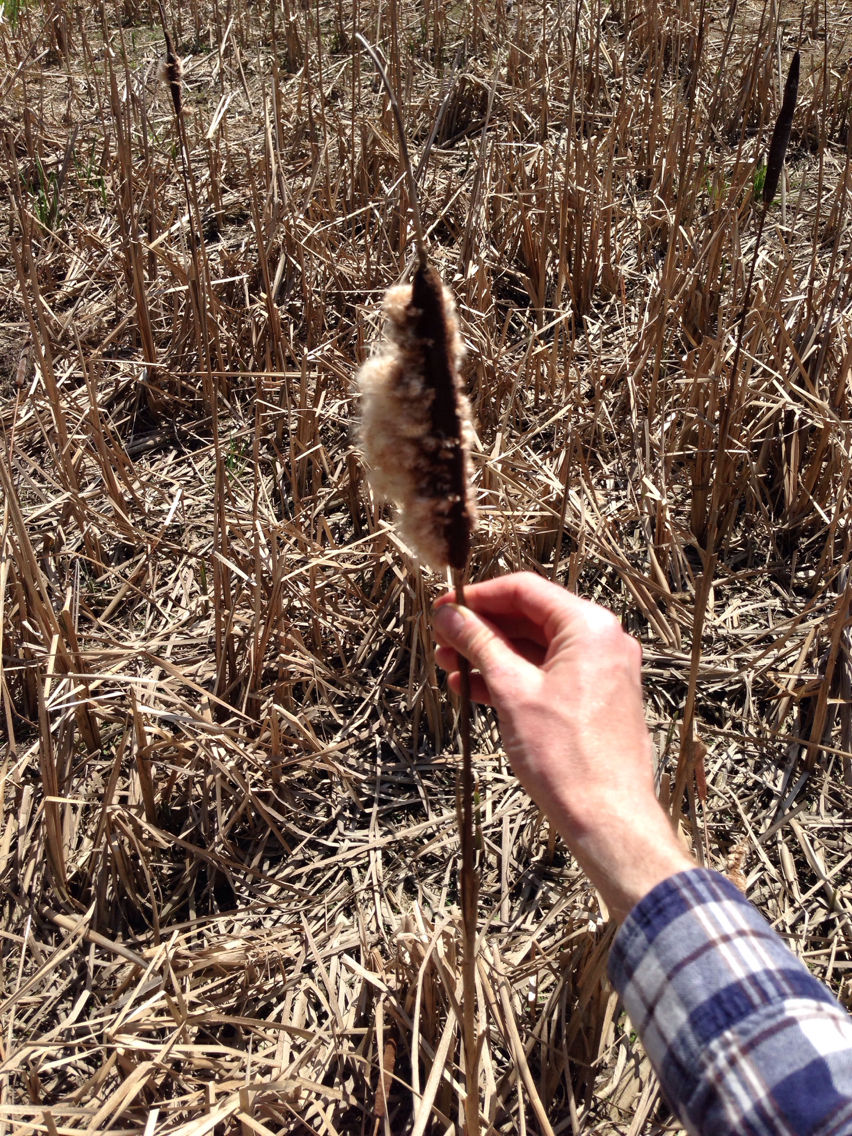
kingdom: Plantae
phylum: Tracheophyta
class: Liliopsida
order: Poales
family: Typhaceae
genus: Typha
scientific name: Typha latifolia
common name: Broadleaf cattail
